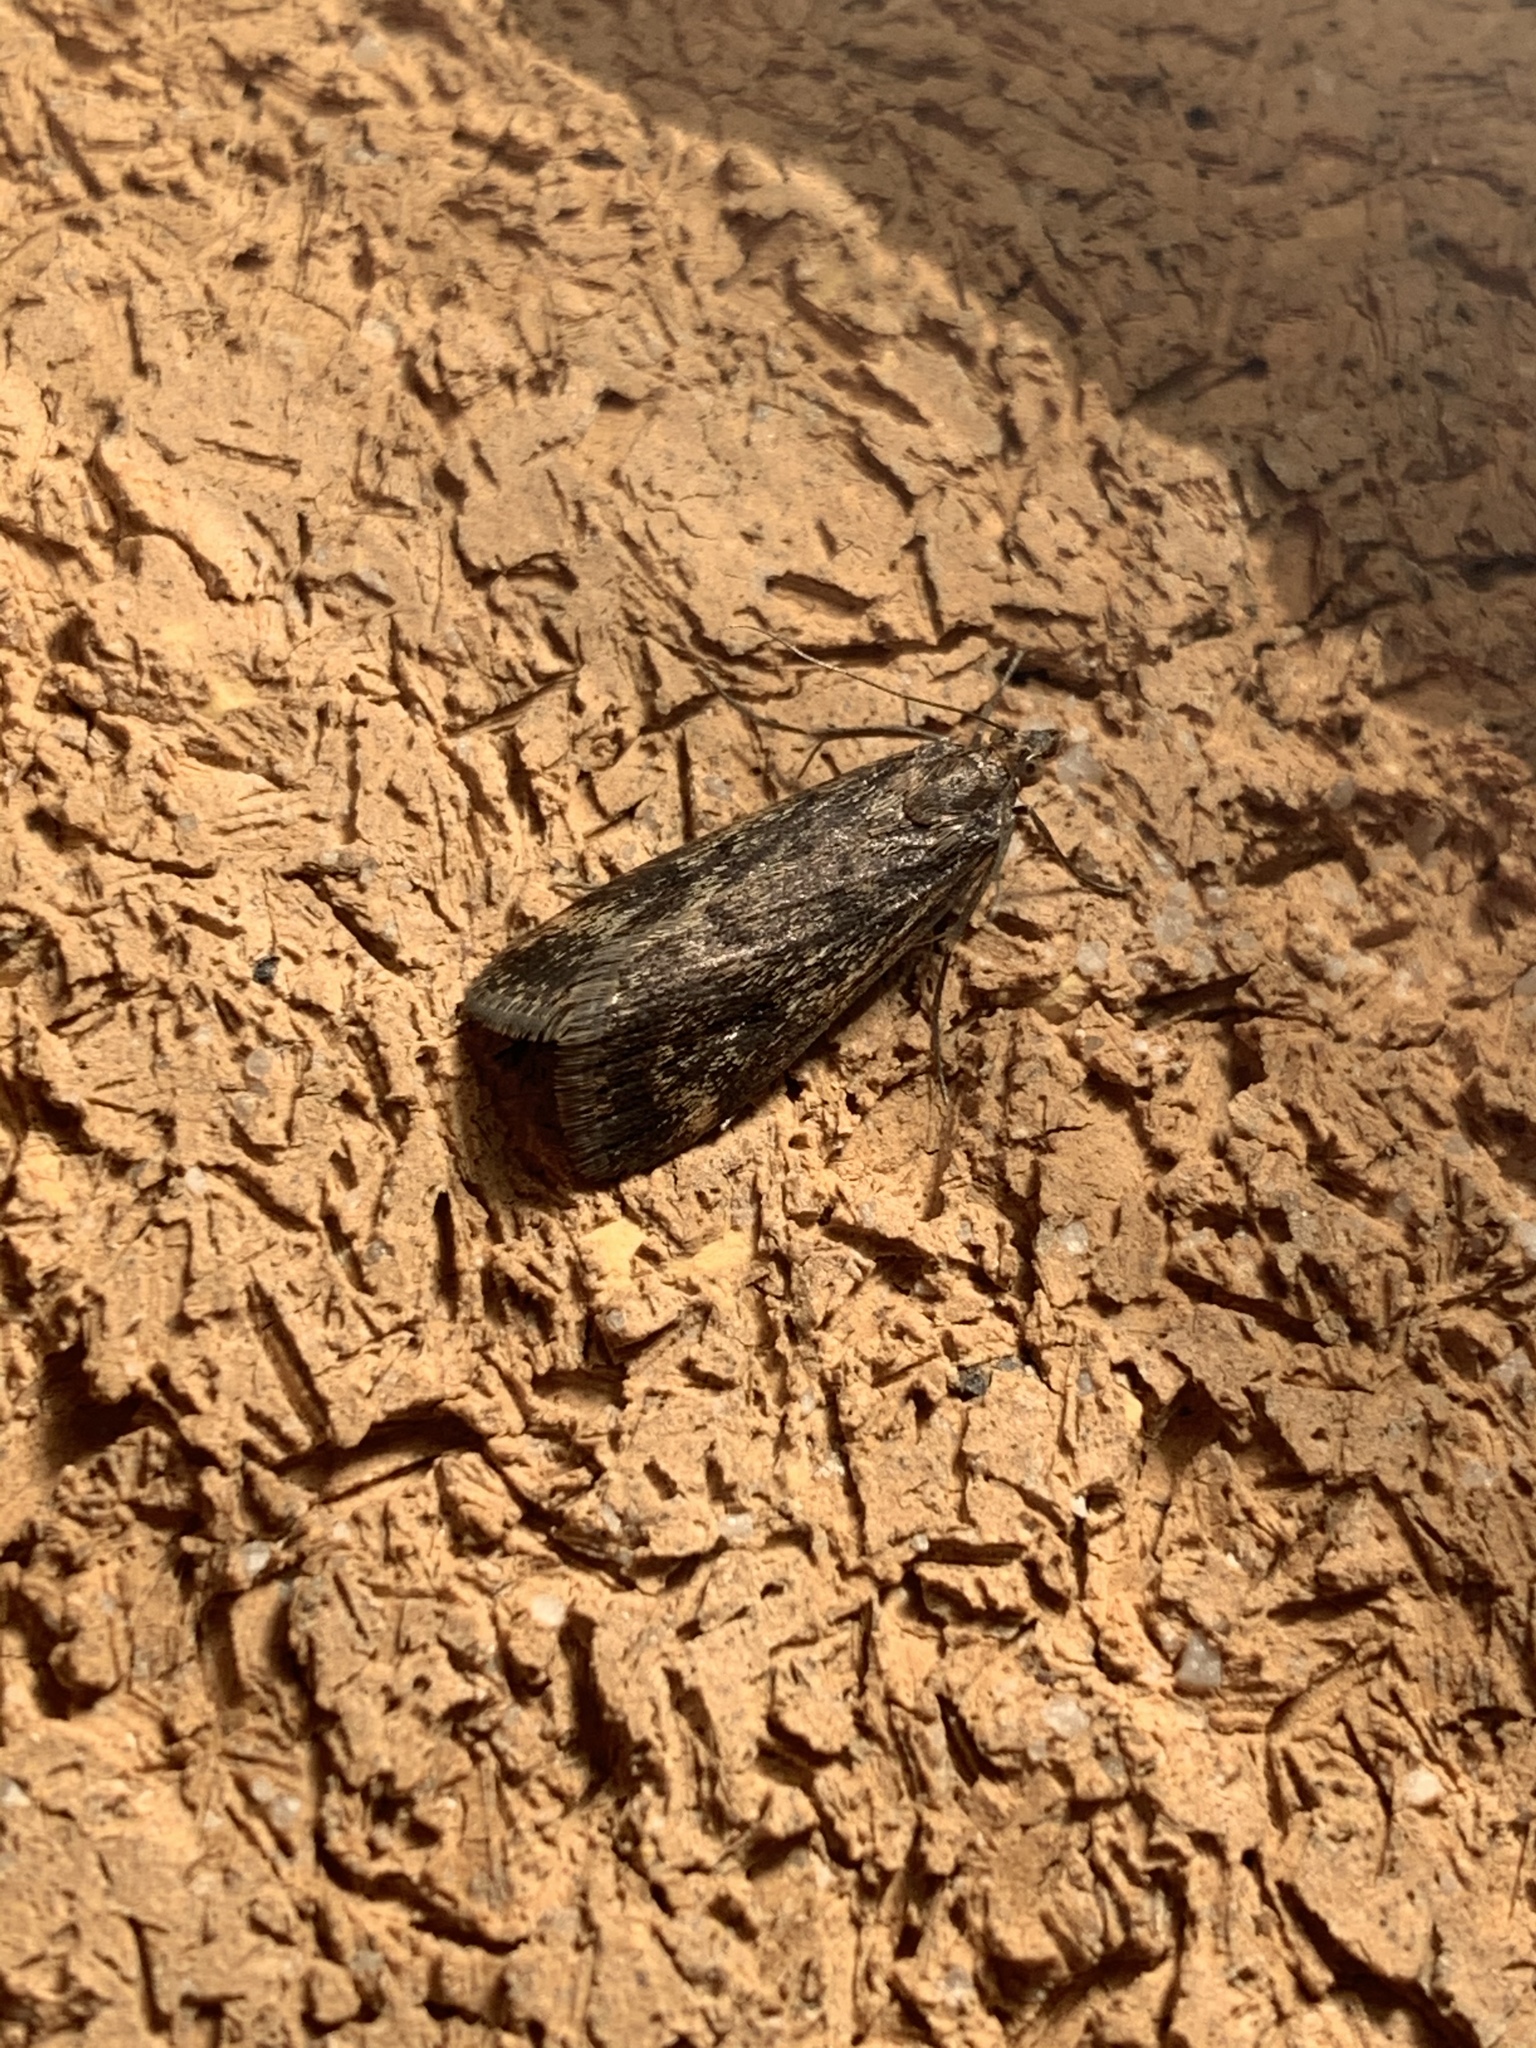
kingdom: Animalia
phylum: Arthropoda
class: Insecta
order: Lepidoptera
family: Crambidae
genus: Achyra
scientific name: Achyra affinitalis
